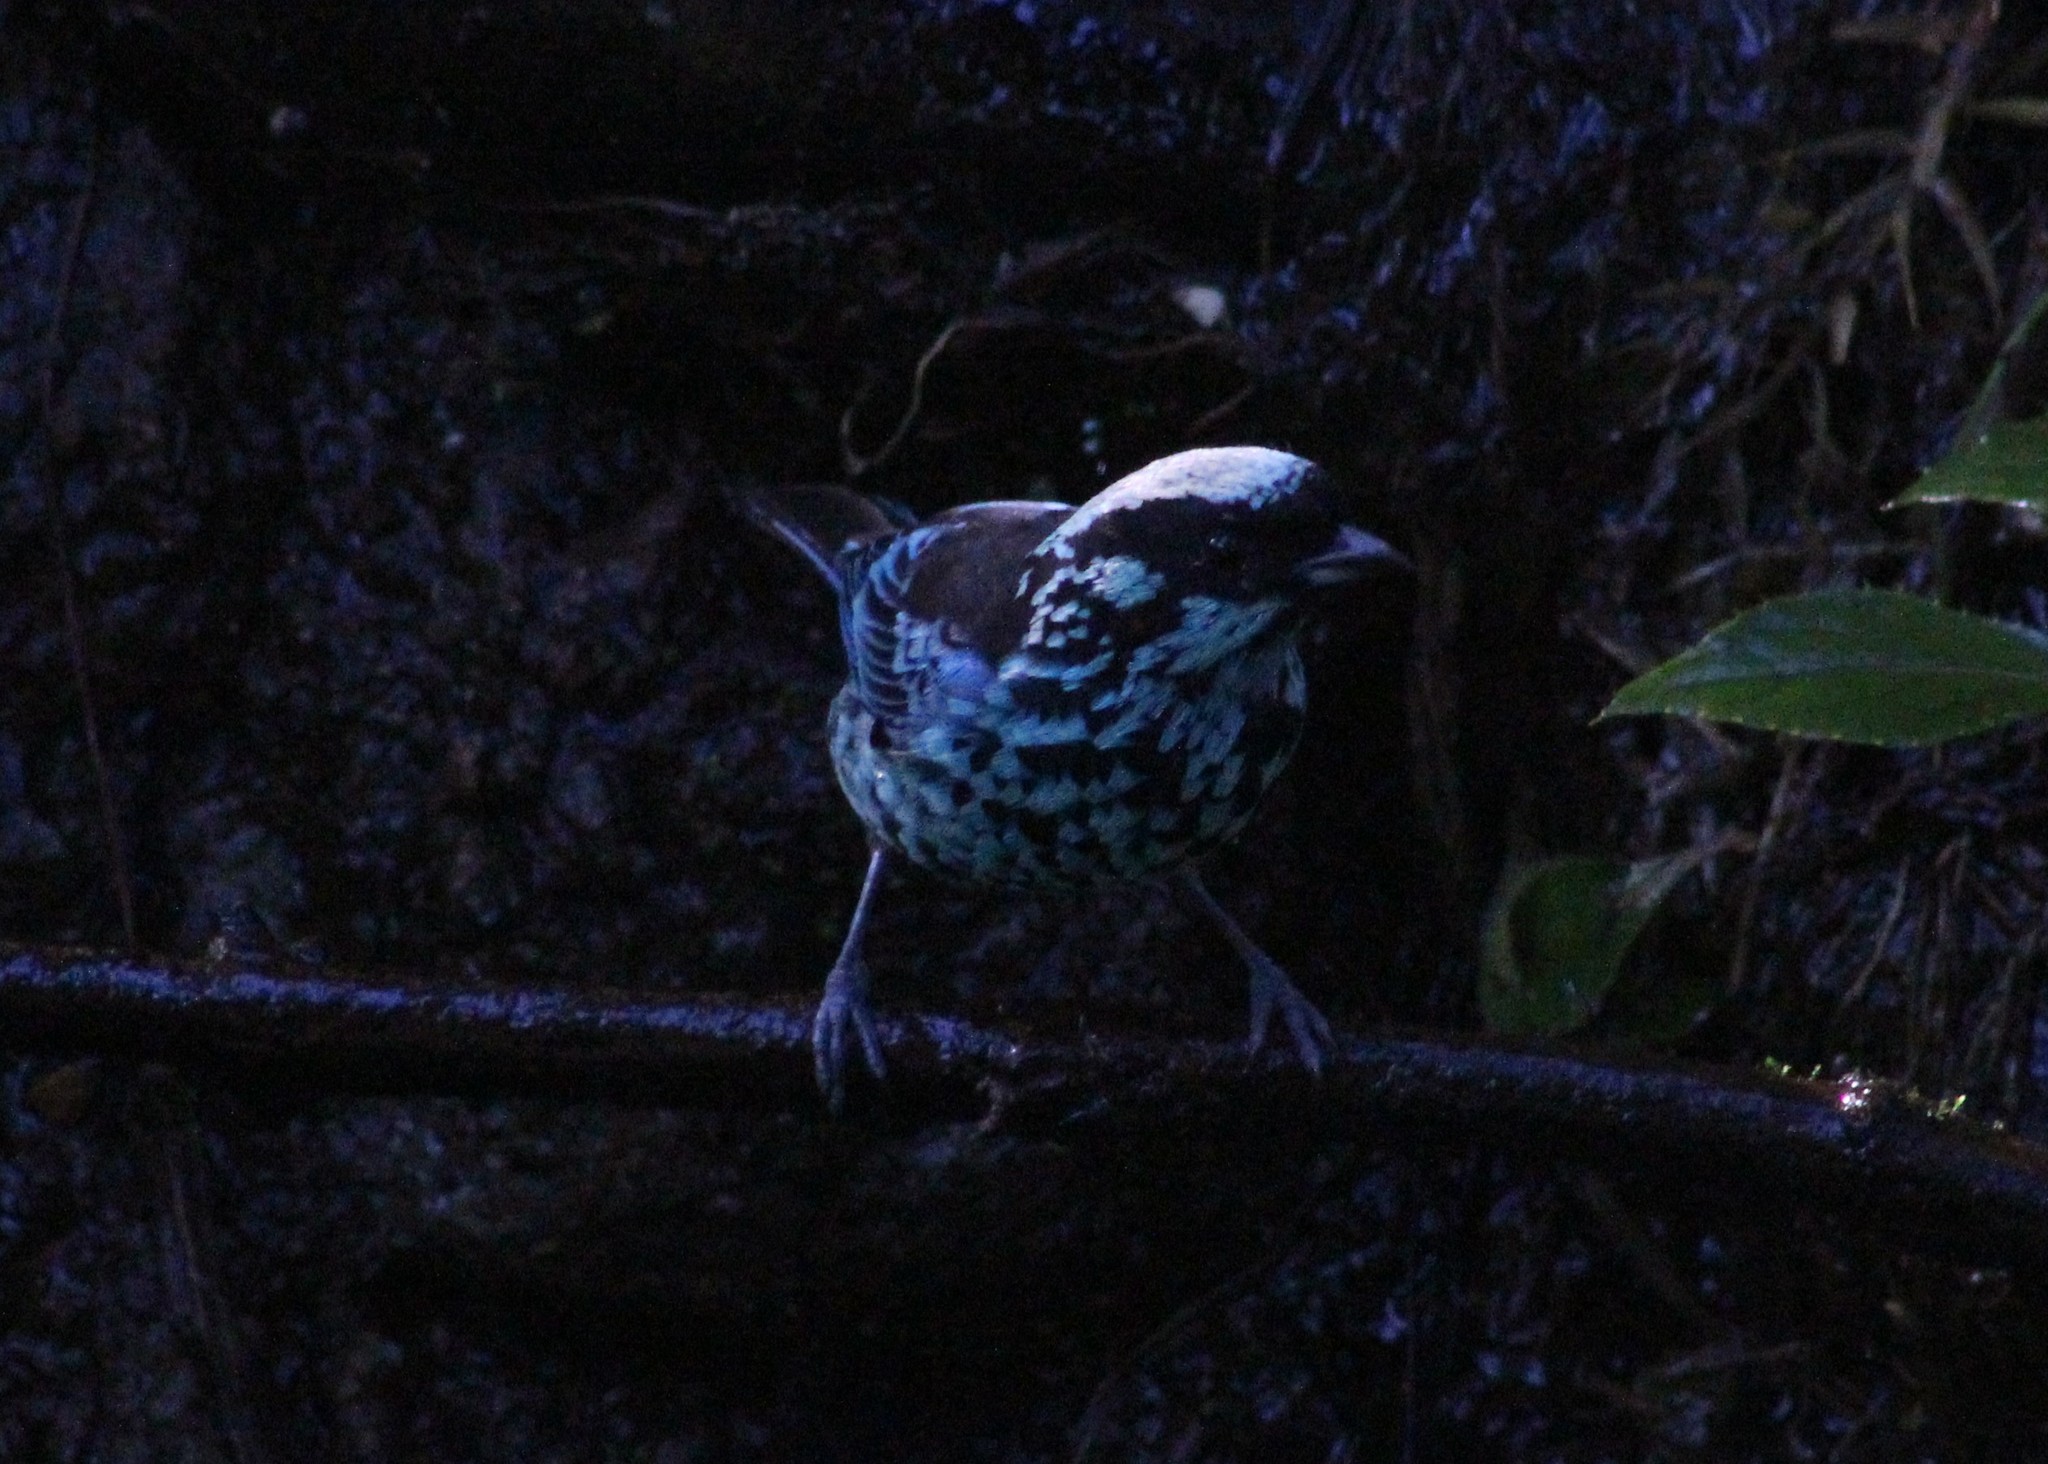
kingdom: Animalia
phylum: Chordata
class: Aves
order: Passeriformes
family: Thraupidae
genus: Tangara
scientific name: Tangara nigroviridis
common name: Beryl-spangled tanager
